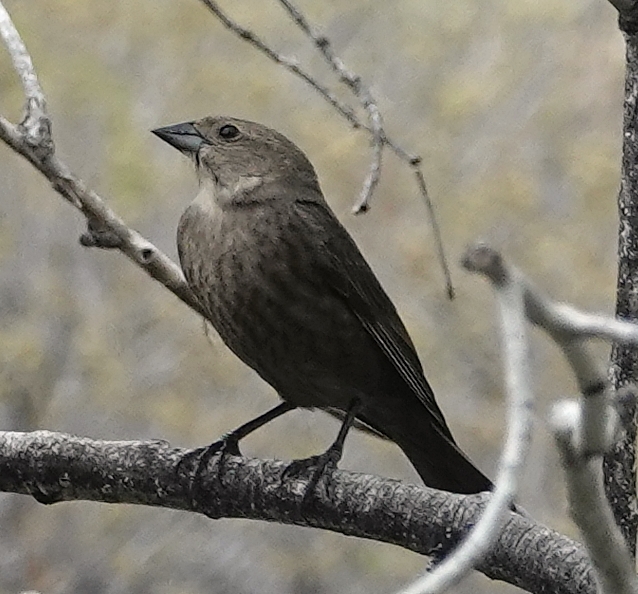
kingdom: Animalia
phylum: Chordata
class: Aves
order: Passeriformes
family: Icteridae
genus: Molothrus
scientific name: Molothrus ater
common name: Brown-headed cowbird
